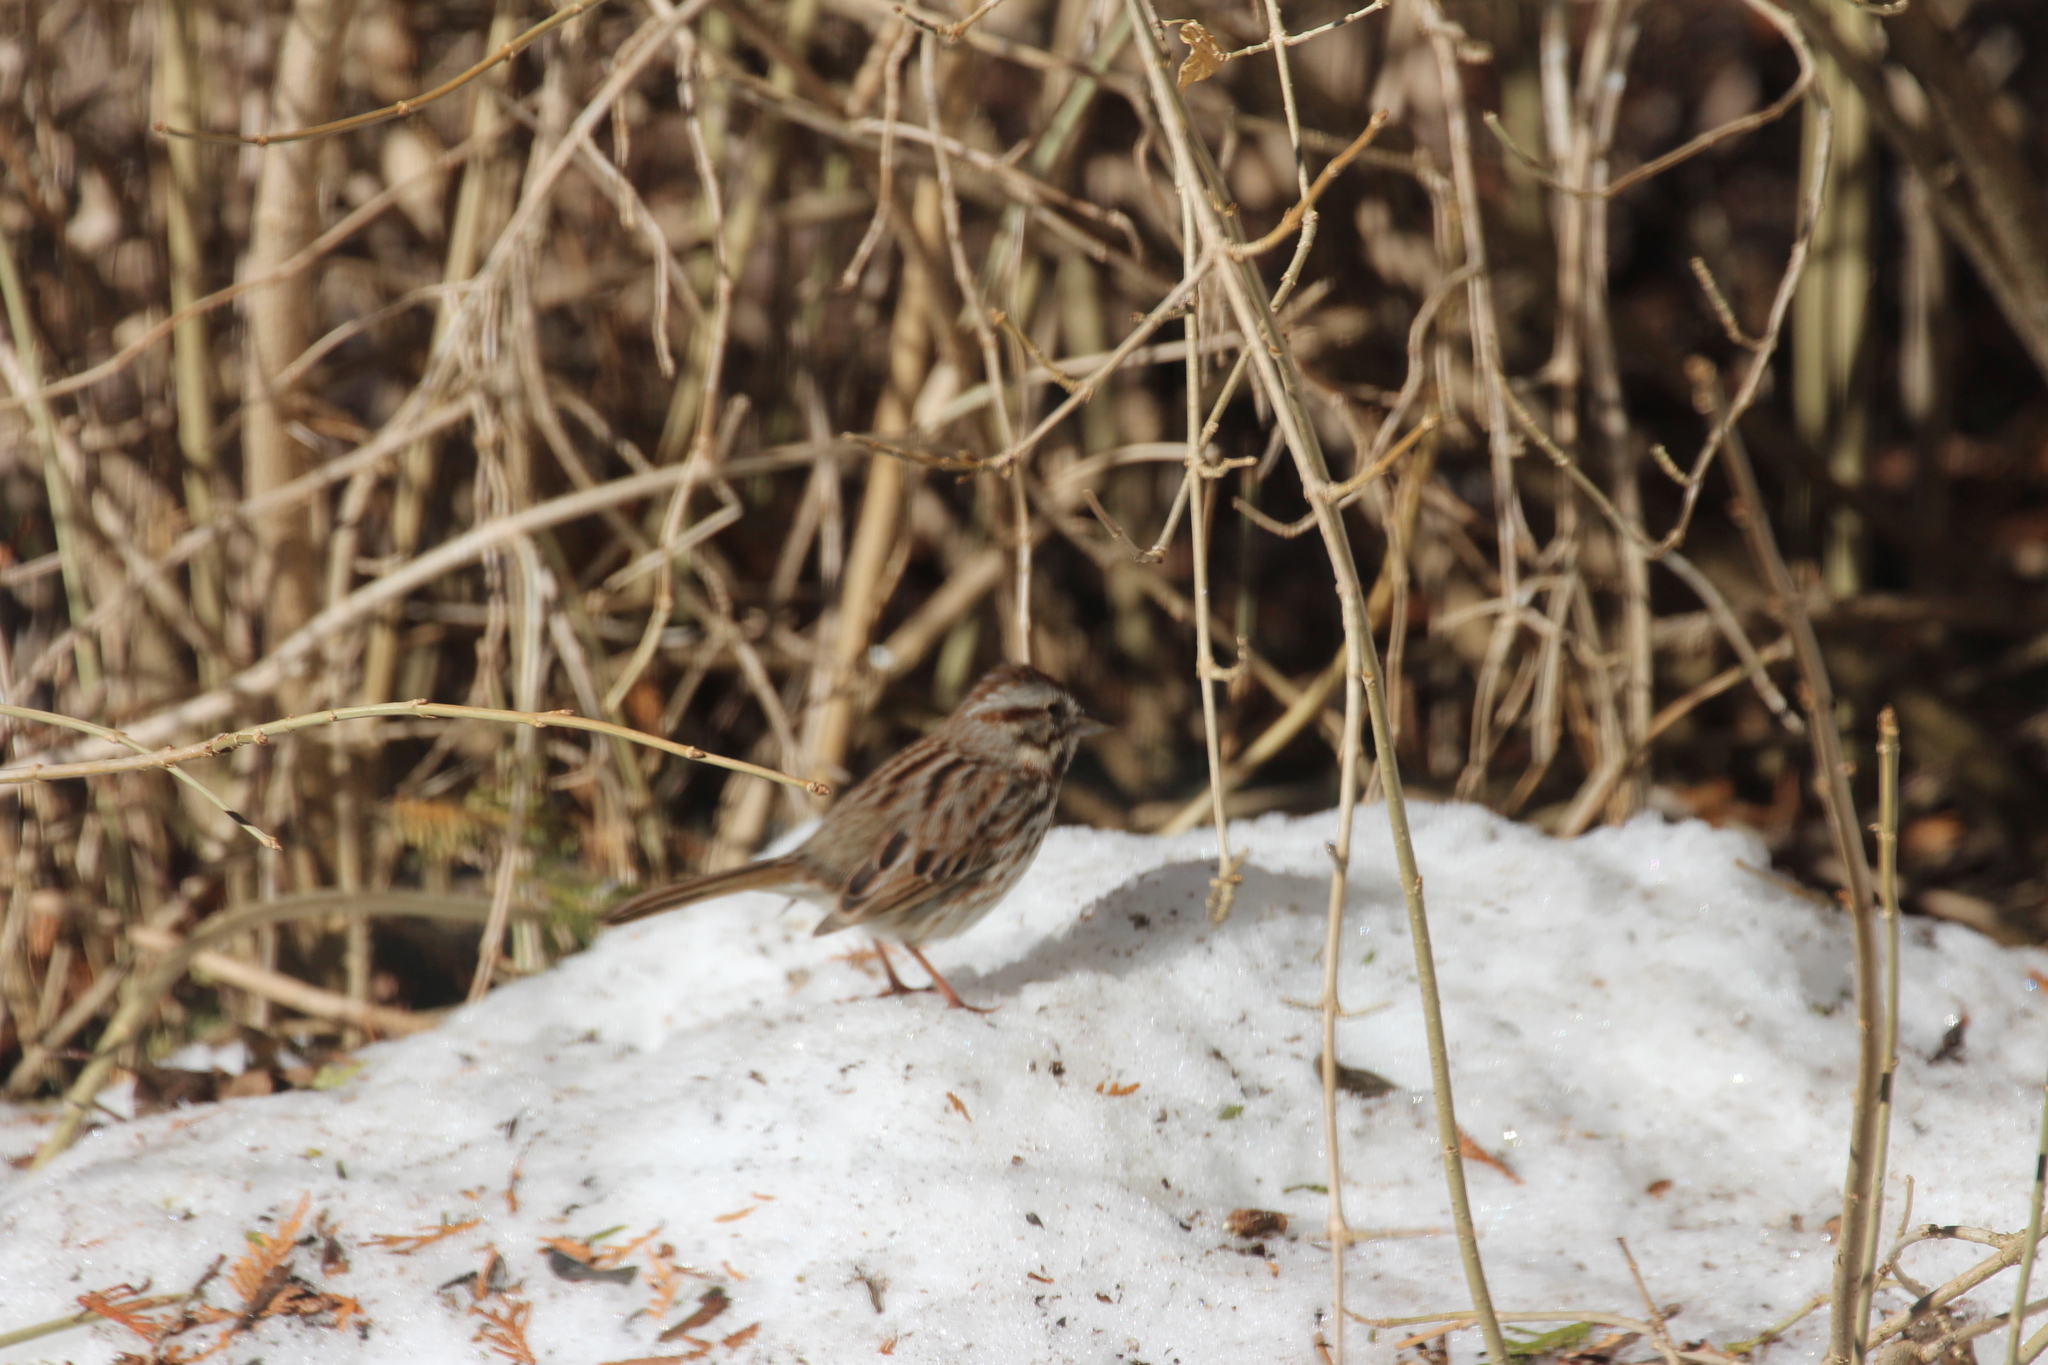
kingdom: Animalia
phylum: Chordata
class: Aves
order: Passeriformes
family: Passerellidae
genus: Melospiza
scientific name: Melospiza melodia
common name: Song sparrow
